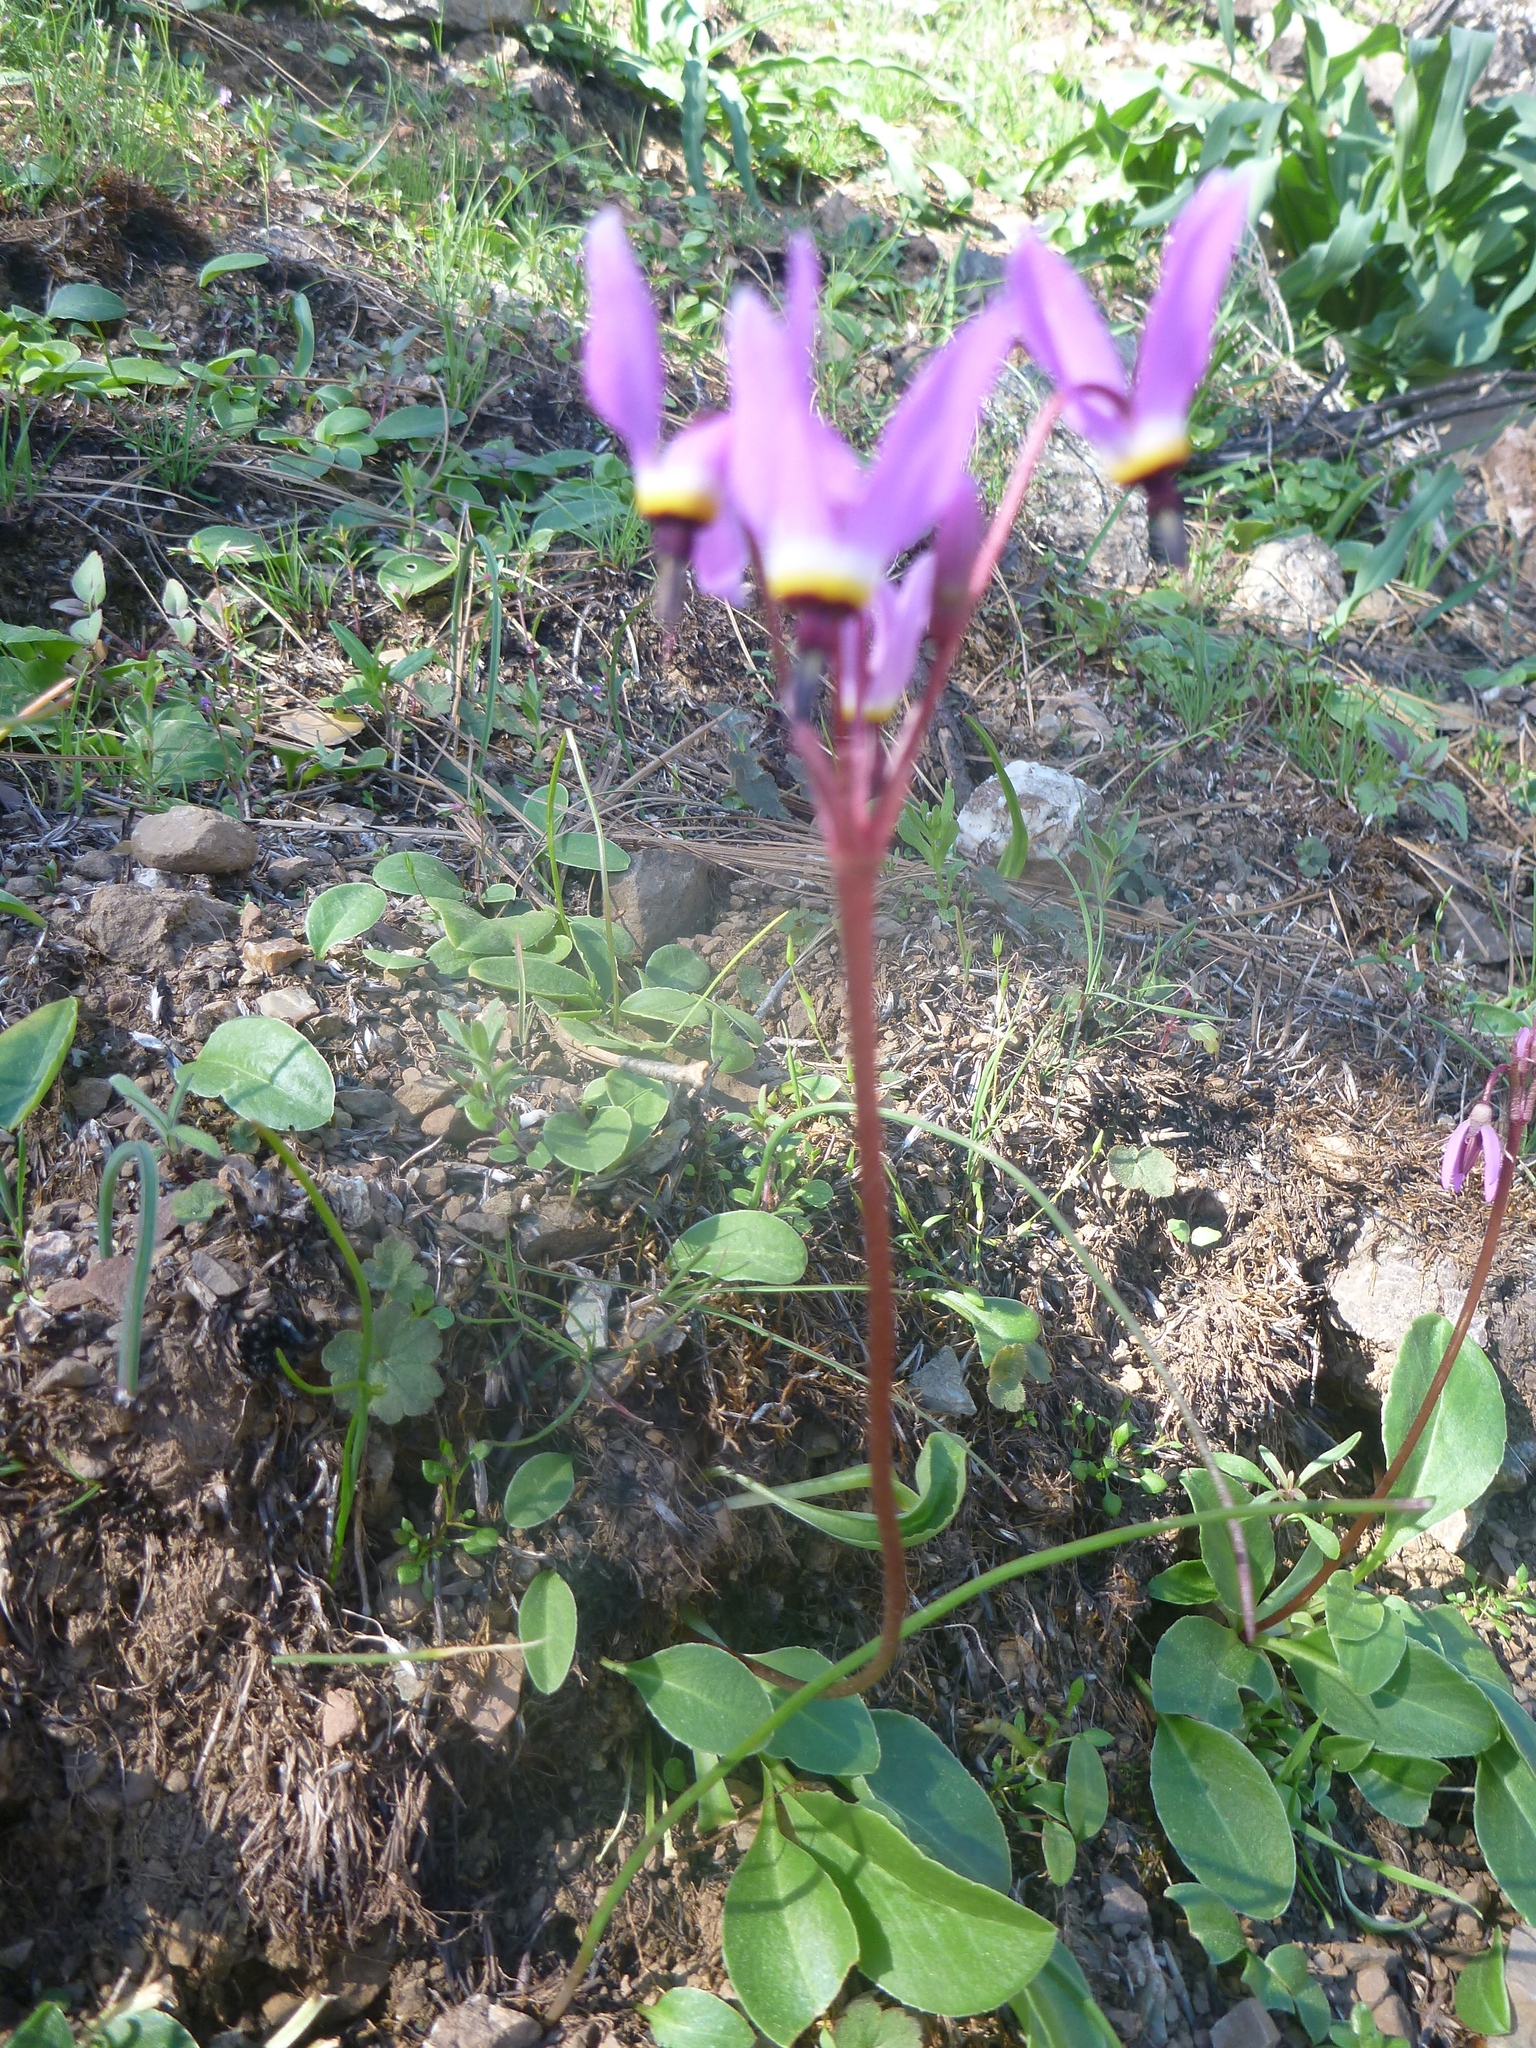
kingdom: Plantae
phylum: Tracheophyta
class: Magnoliopsida
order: Ericales
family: Primulaceae
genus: Dodecatheon
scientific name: Dodecatheon hendersonii
